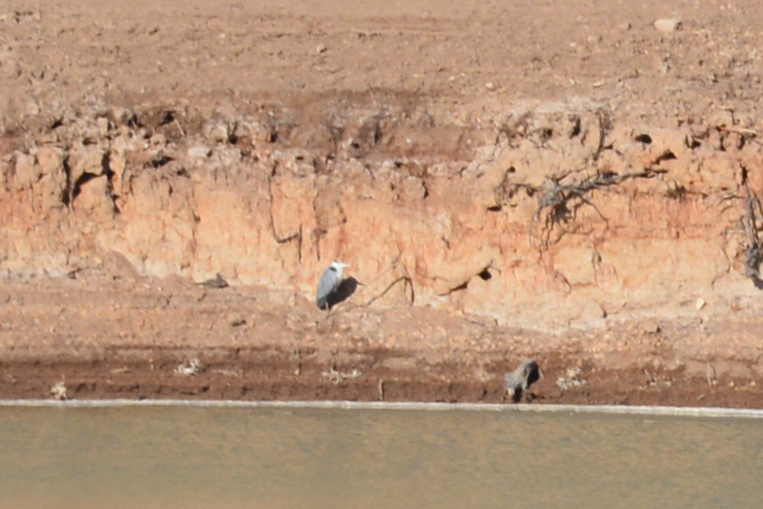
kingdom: Animalia
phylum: Chordata
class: Aves
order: Pelecaniformes
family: Ardeidae
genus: Ardea
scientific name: Ardea cinerea
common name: Grey heron
